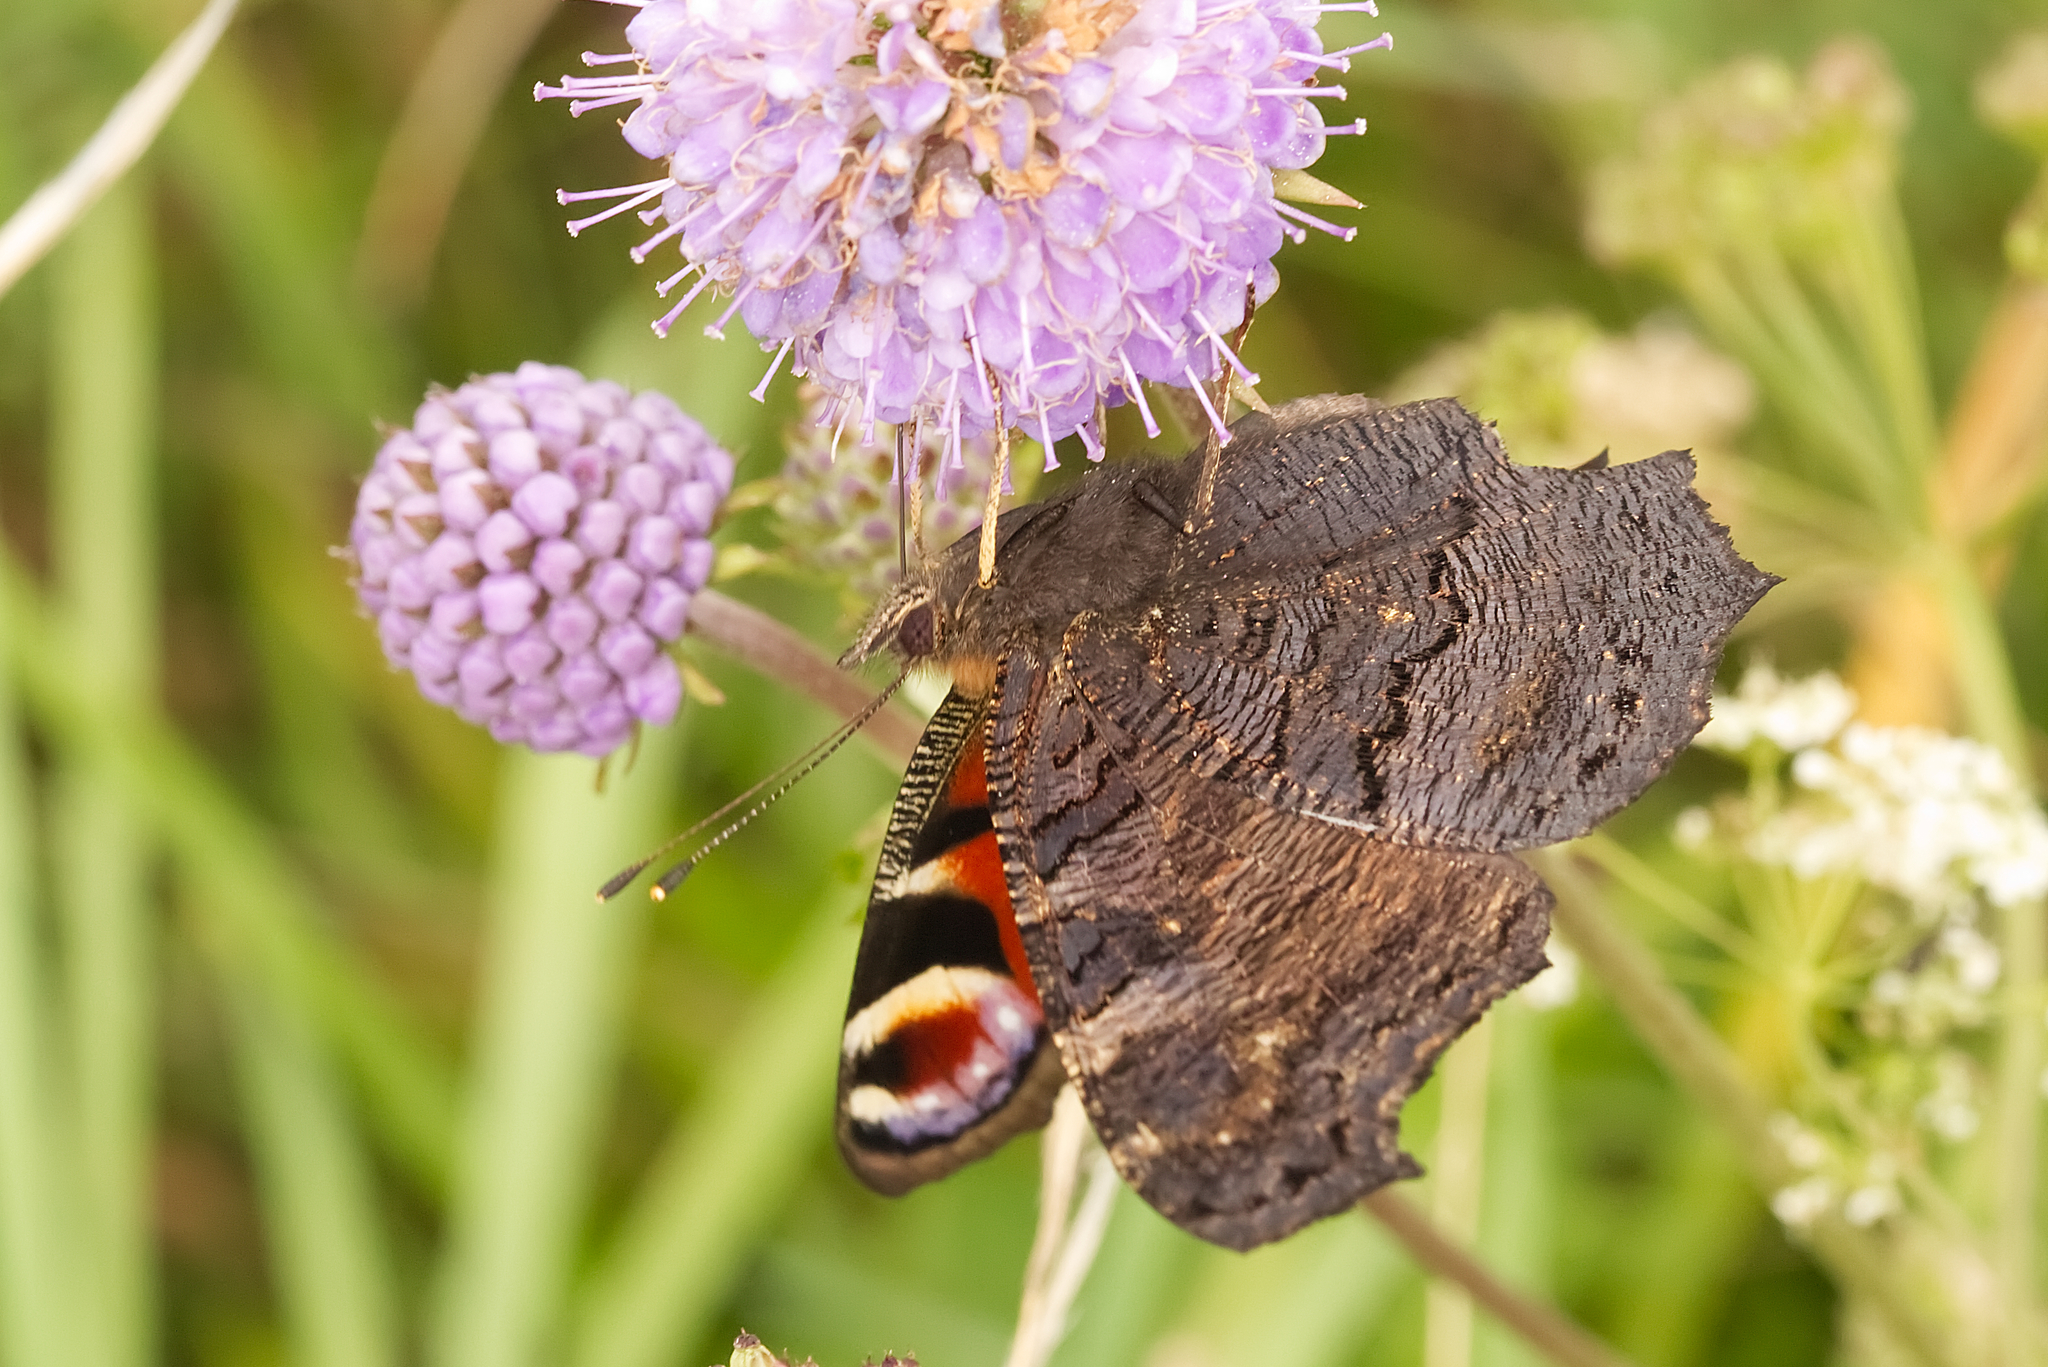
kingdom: Animalia
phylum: Arthropoda
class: Insecta
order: Lepidoptera
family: Nymphalidae
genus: Aglais
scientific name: Aglais io
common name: Peacock
